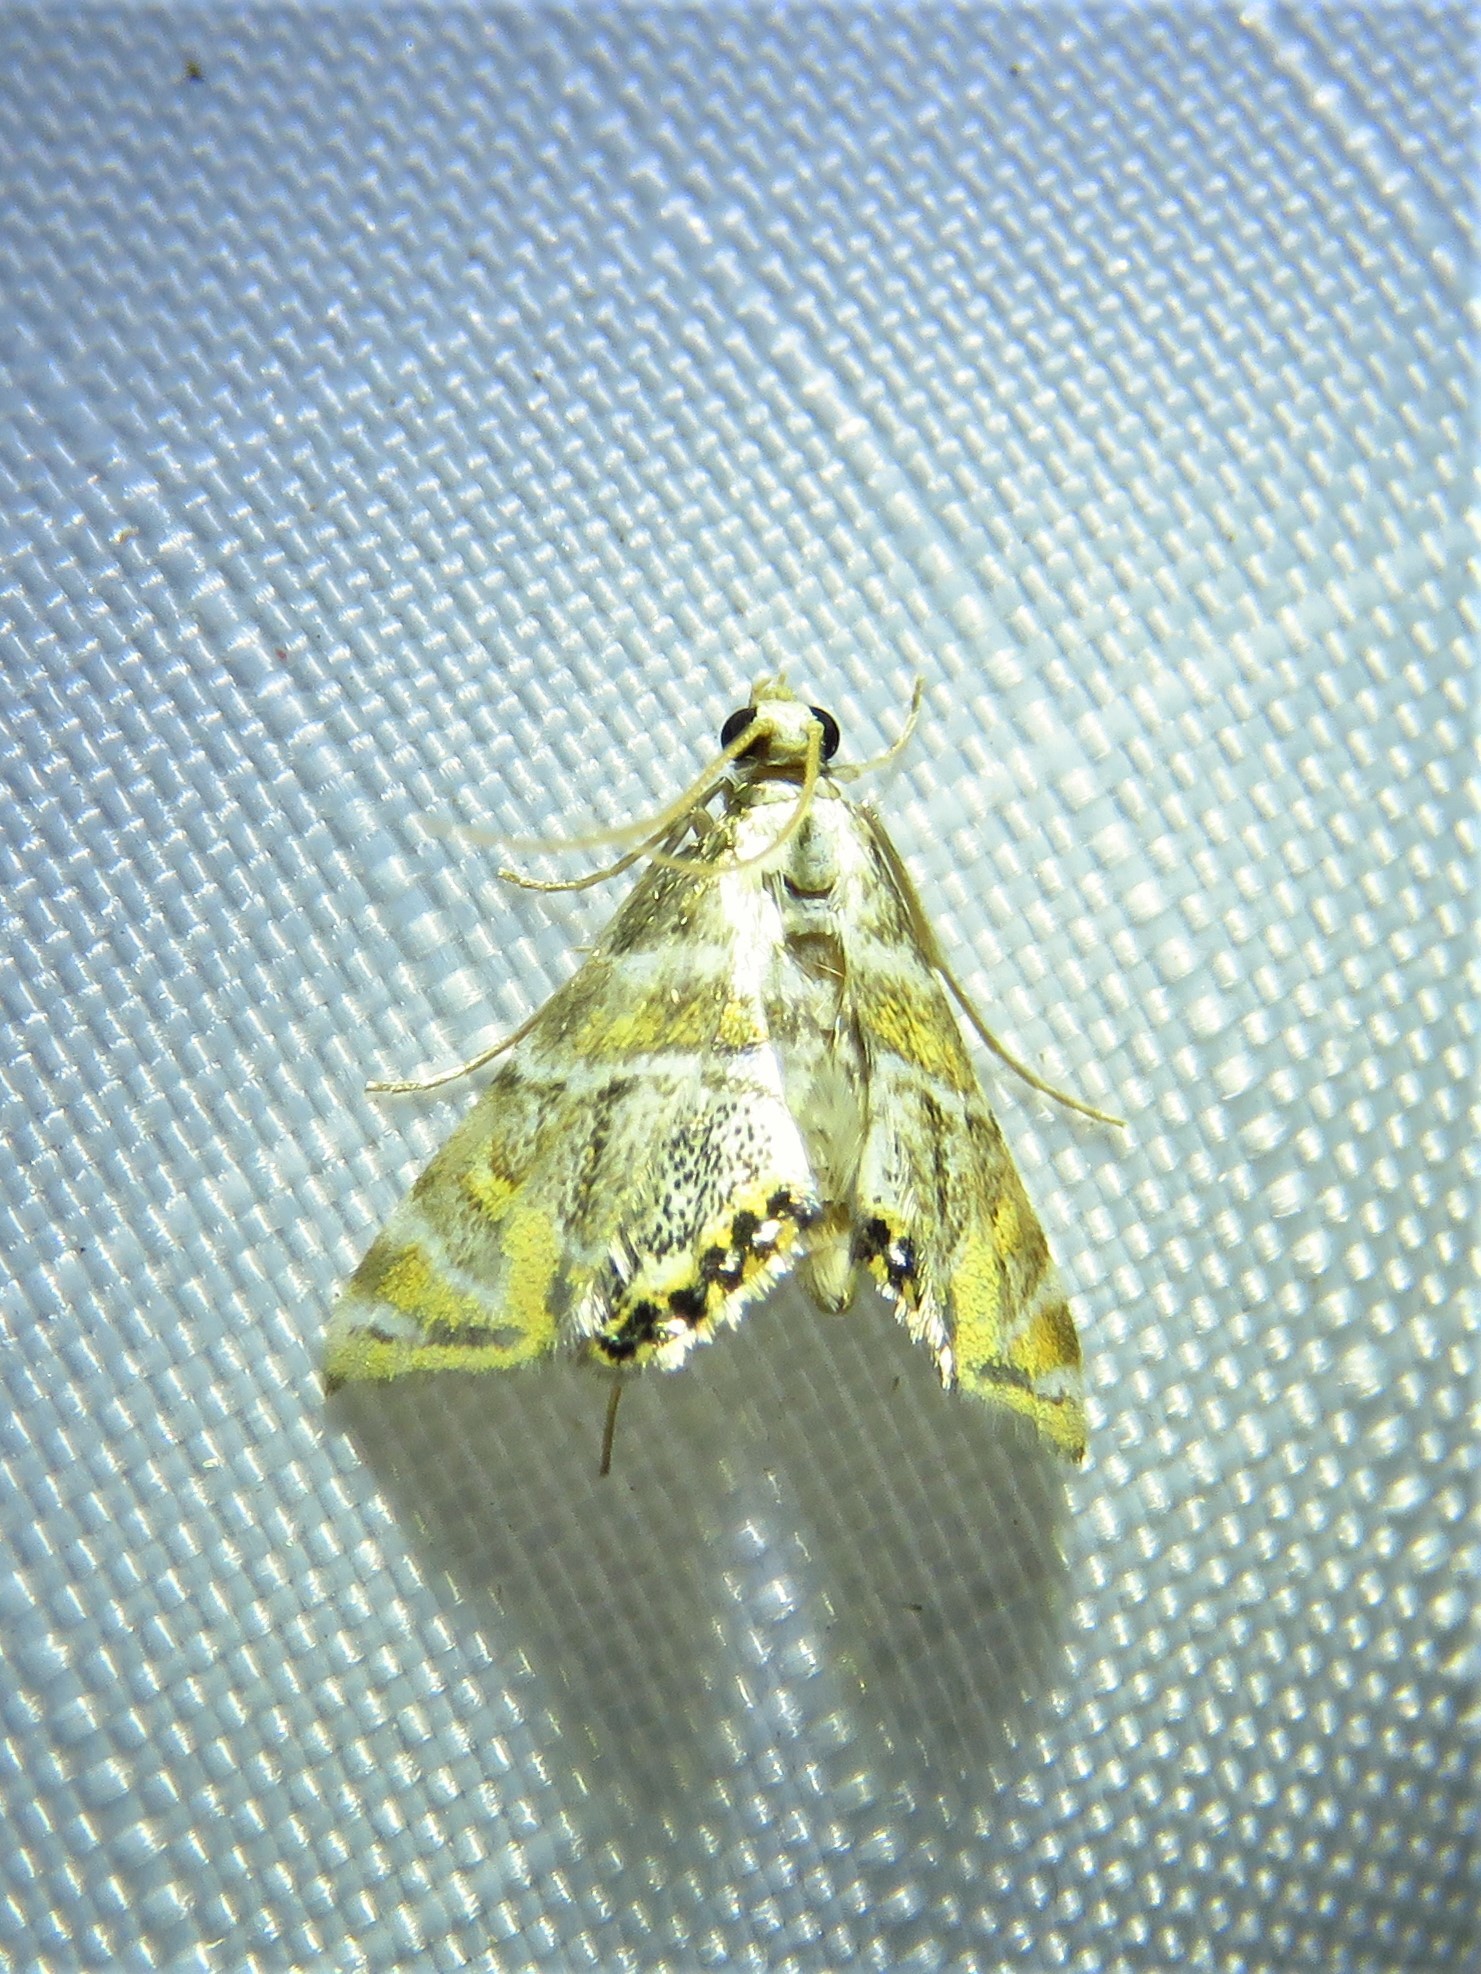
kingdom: Animalia
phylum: Arthropoda
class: Insecta
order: Lepidoptera
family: Crambidae
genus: Petrophila
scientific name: Petrophila heppneri
